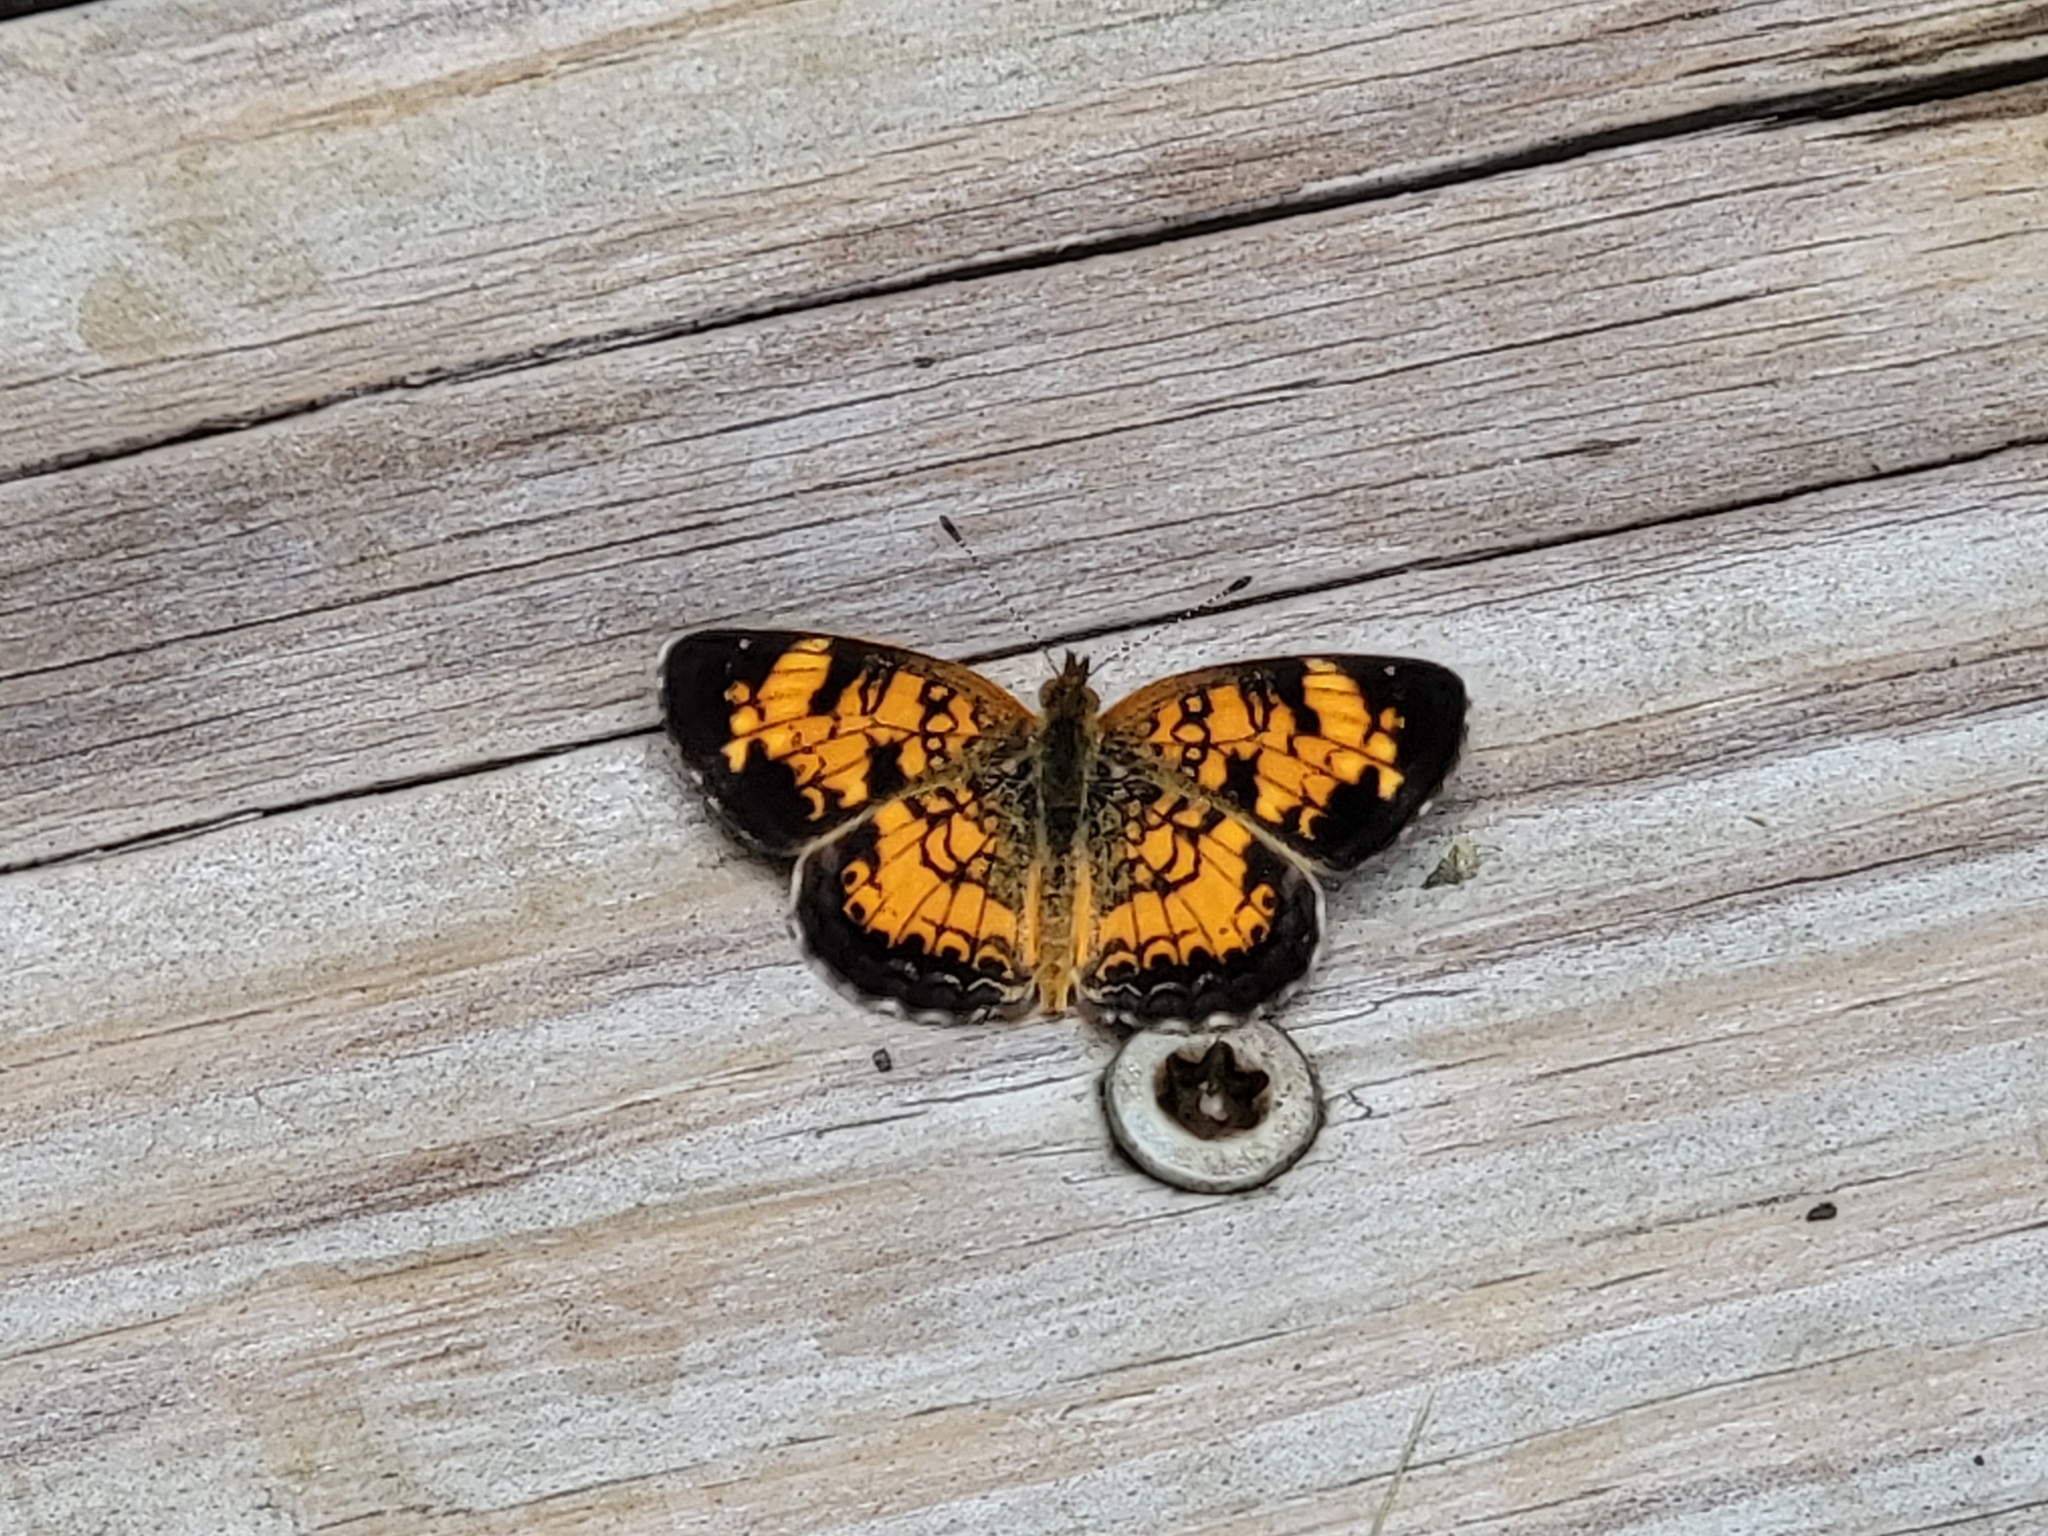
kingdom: Animalia
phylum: Arthropoda
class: Insecta
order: Lepidoptera
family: Nymphalidae
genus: Phyciodes
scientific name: Phyciodes tharos
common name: Pearl crescent
